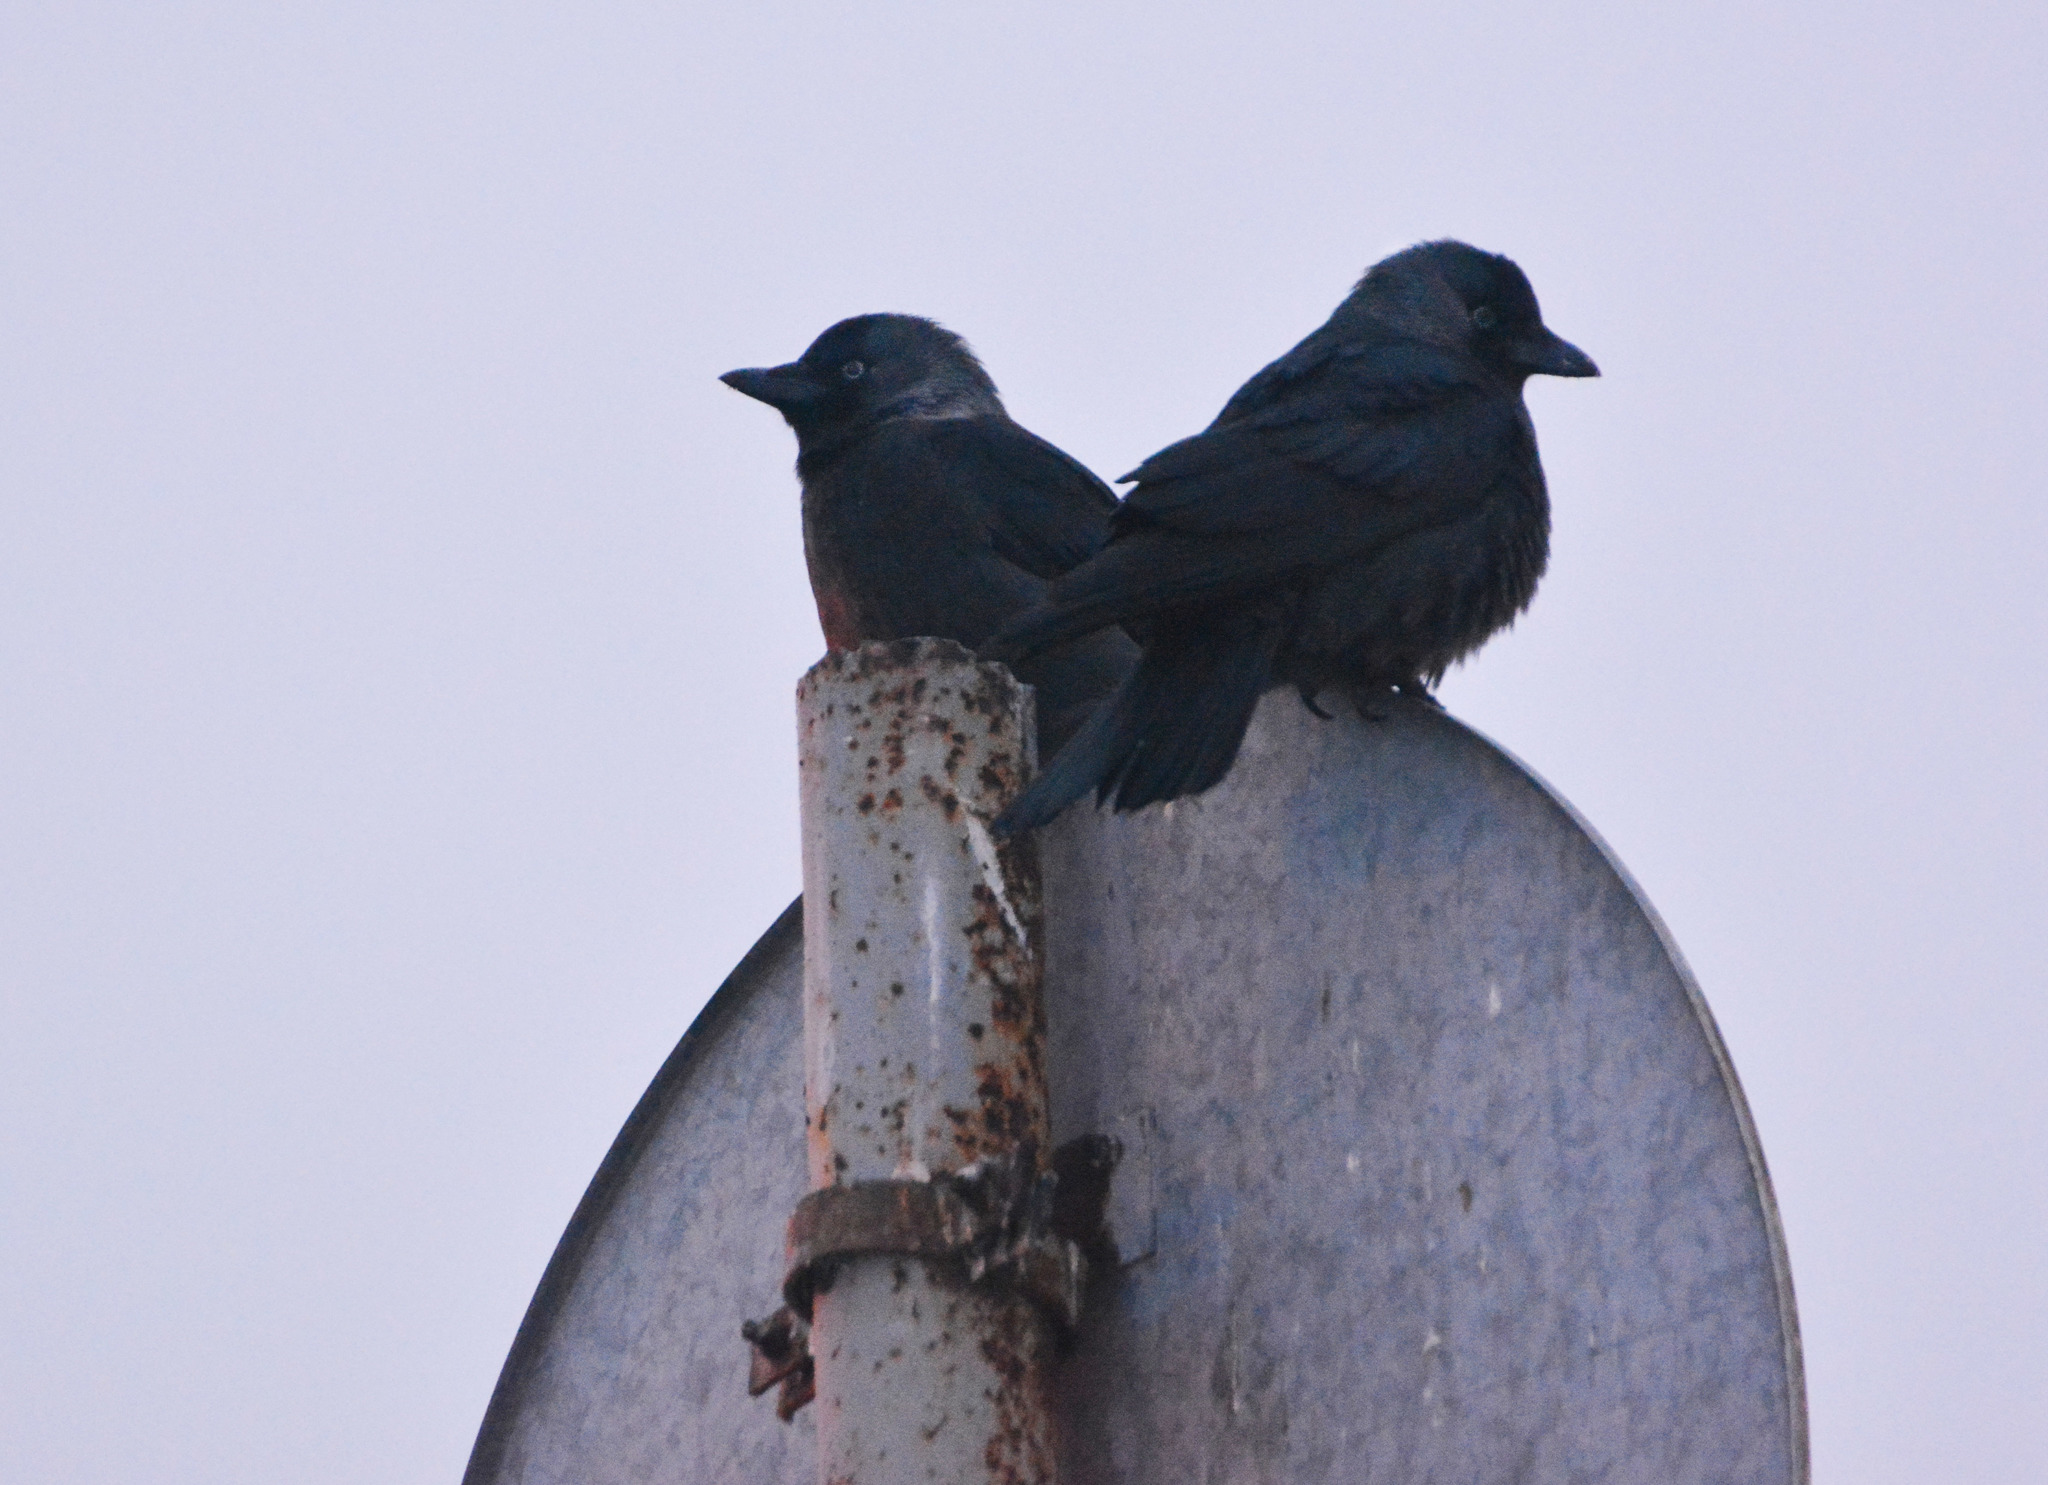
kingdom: Animalia
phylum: Chordata
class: Aves
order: Passeriformes
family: Corvidae
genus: Coloeus
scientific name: Coloeus monedula
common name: Western jackdaw
